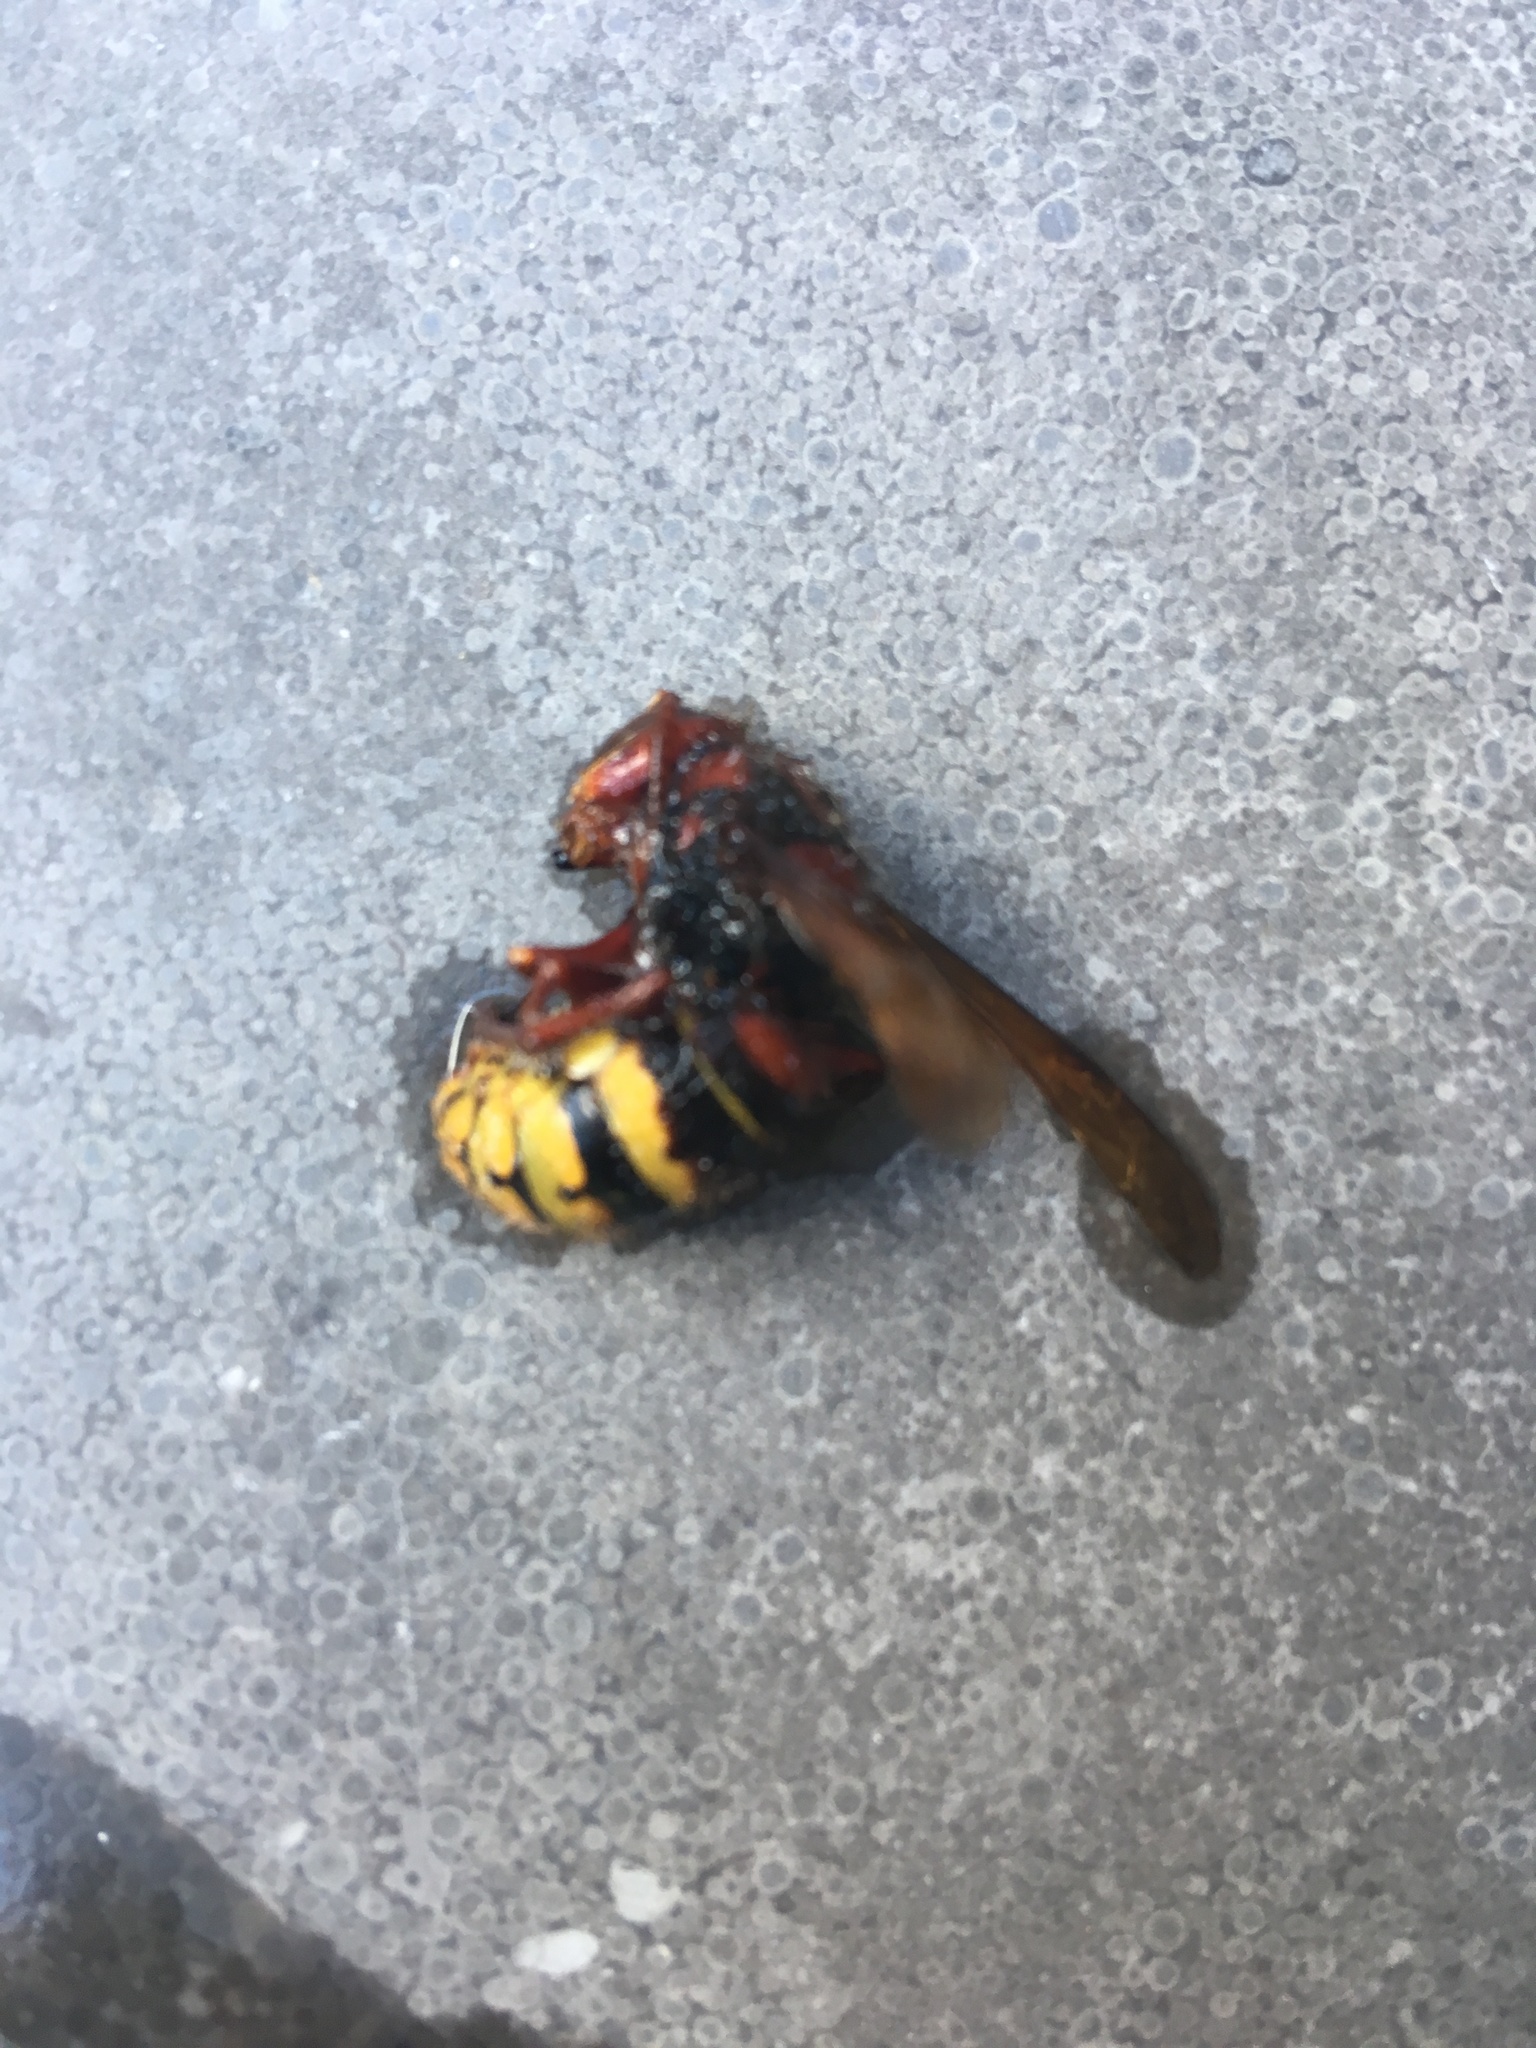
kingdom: Animalia
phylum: Arthropoda
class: Insecta
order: Hymenoptera
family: Vespidae
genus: Vespa
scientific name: Vespa crabro
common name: Hornet
